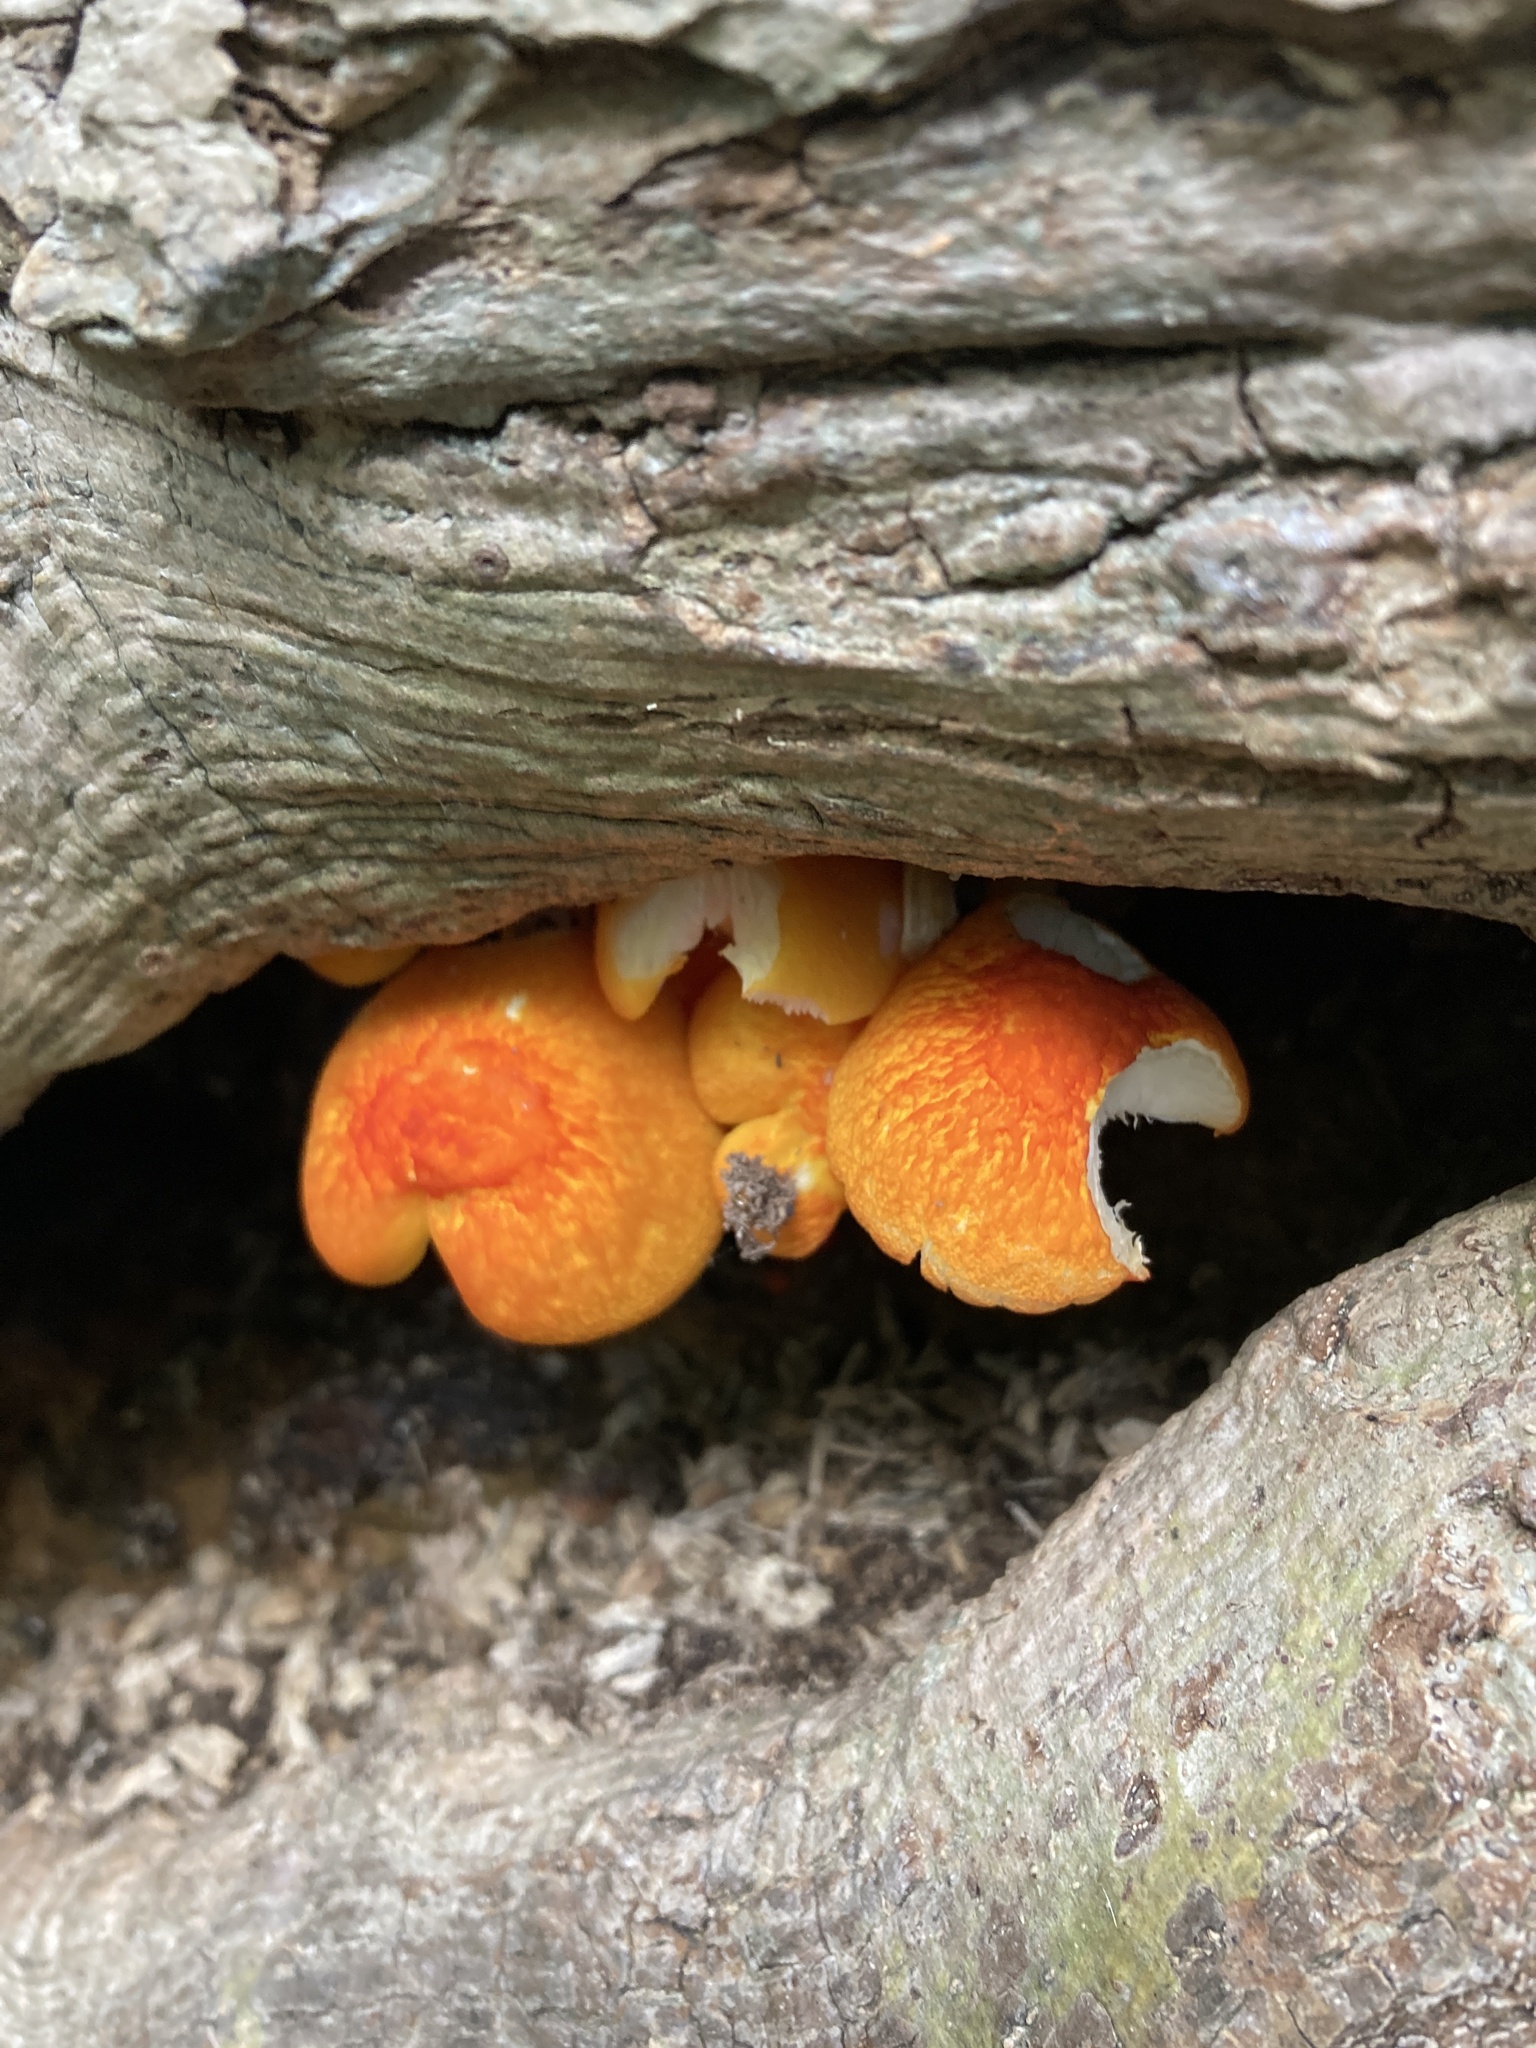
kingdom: Fungi
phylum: Basidiomycota
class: Agaricomycetes
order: Agaricales
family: Pluteaceae
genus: Pluteus
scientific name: Pluteus aurantiorugosus
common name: Flame shield
